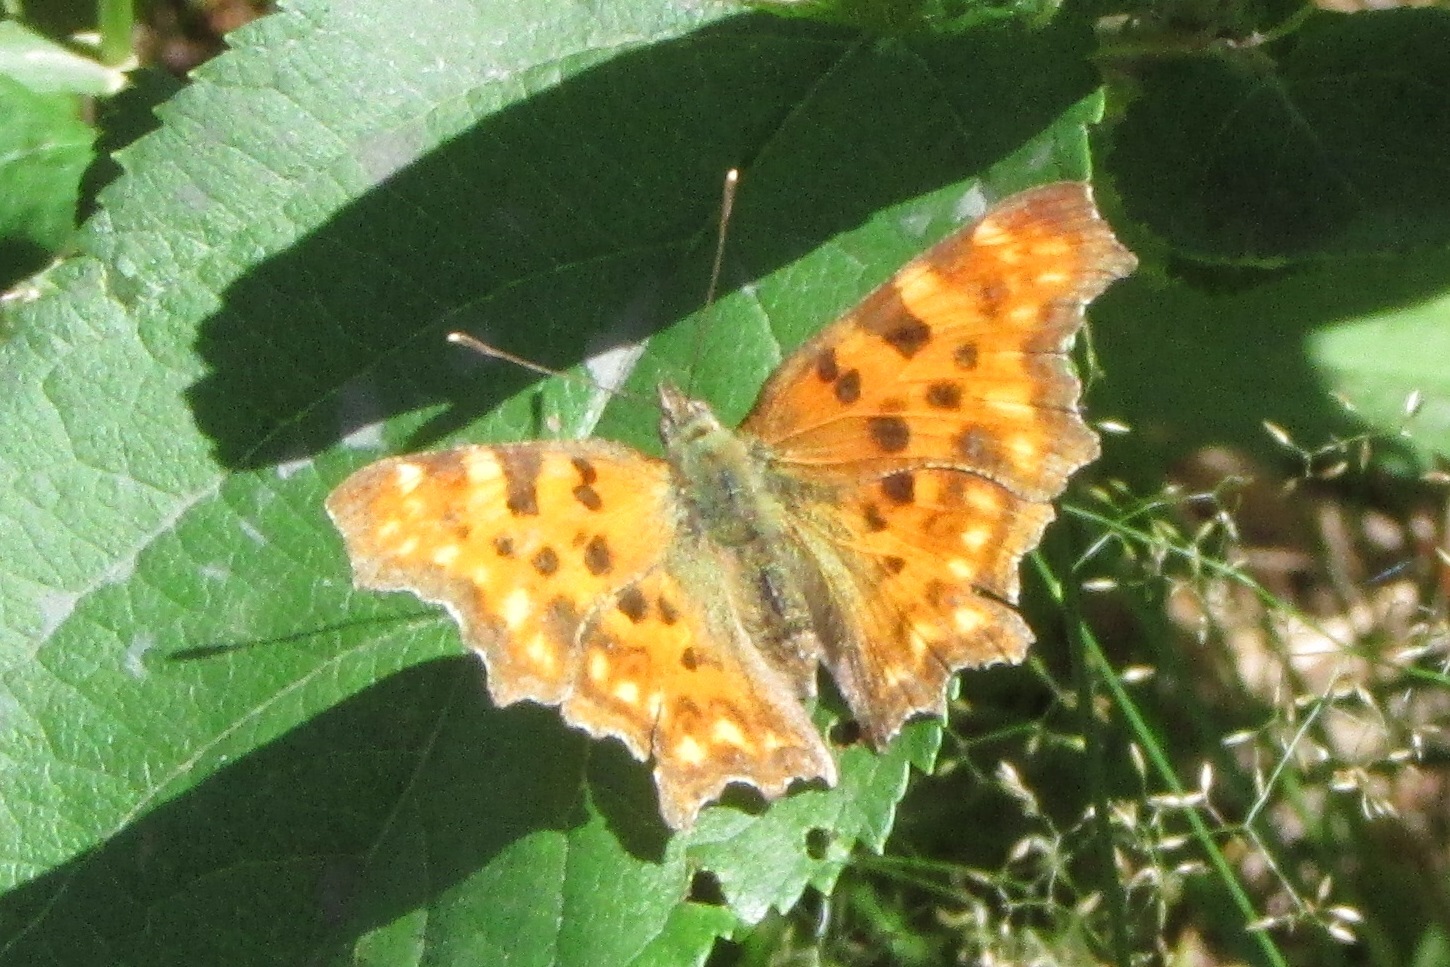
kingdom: Animalia
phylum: Arthropoda
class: Insecta
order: Lepidoptera
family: Nymphalidae
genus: Polygonia
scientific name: Polygonia c-album
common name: Comma
